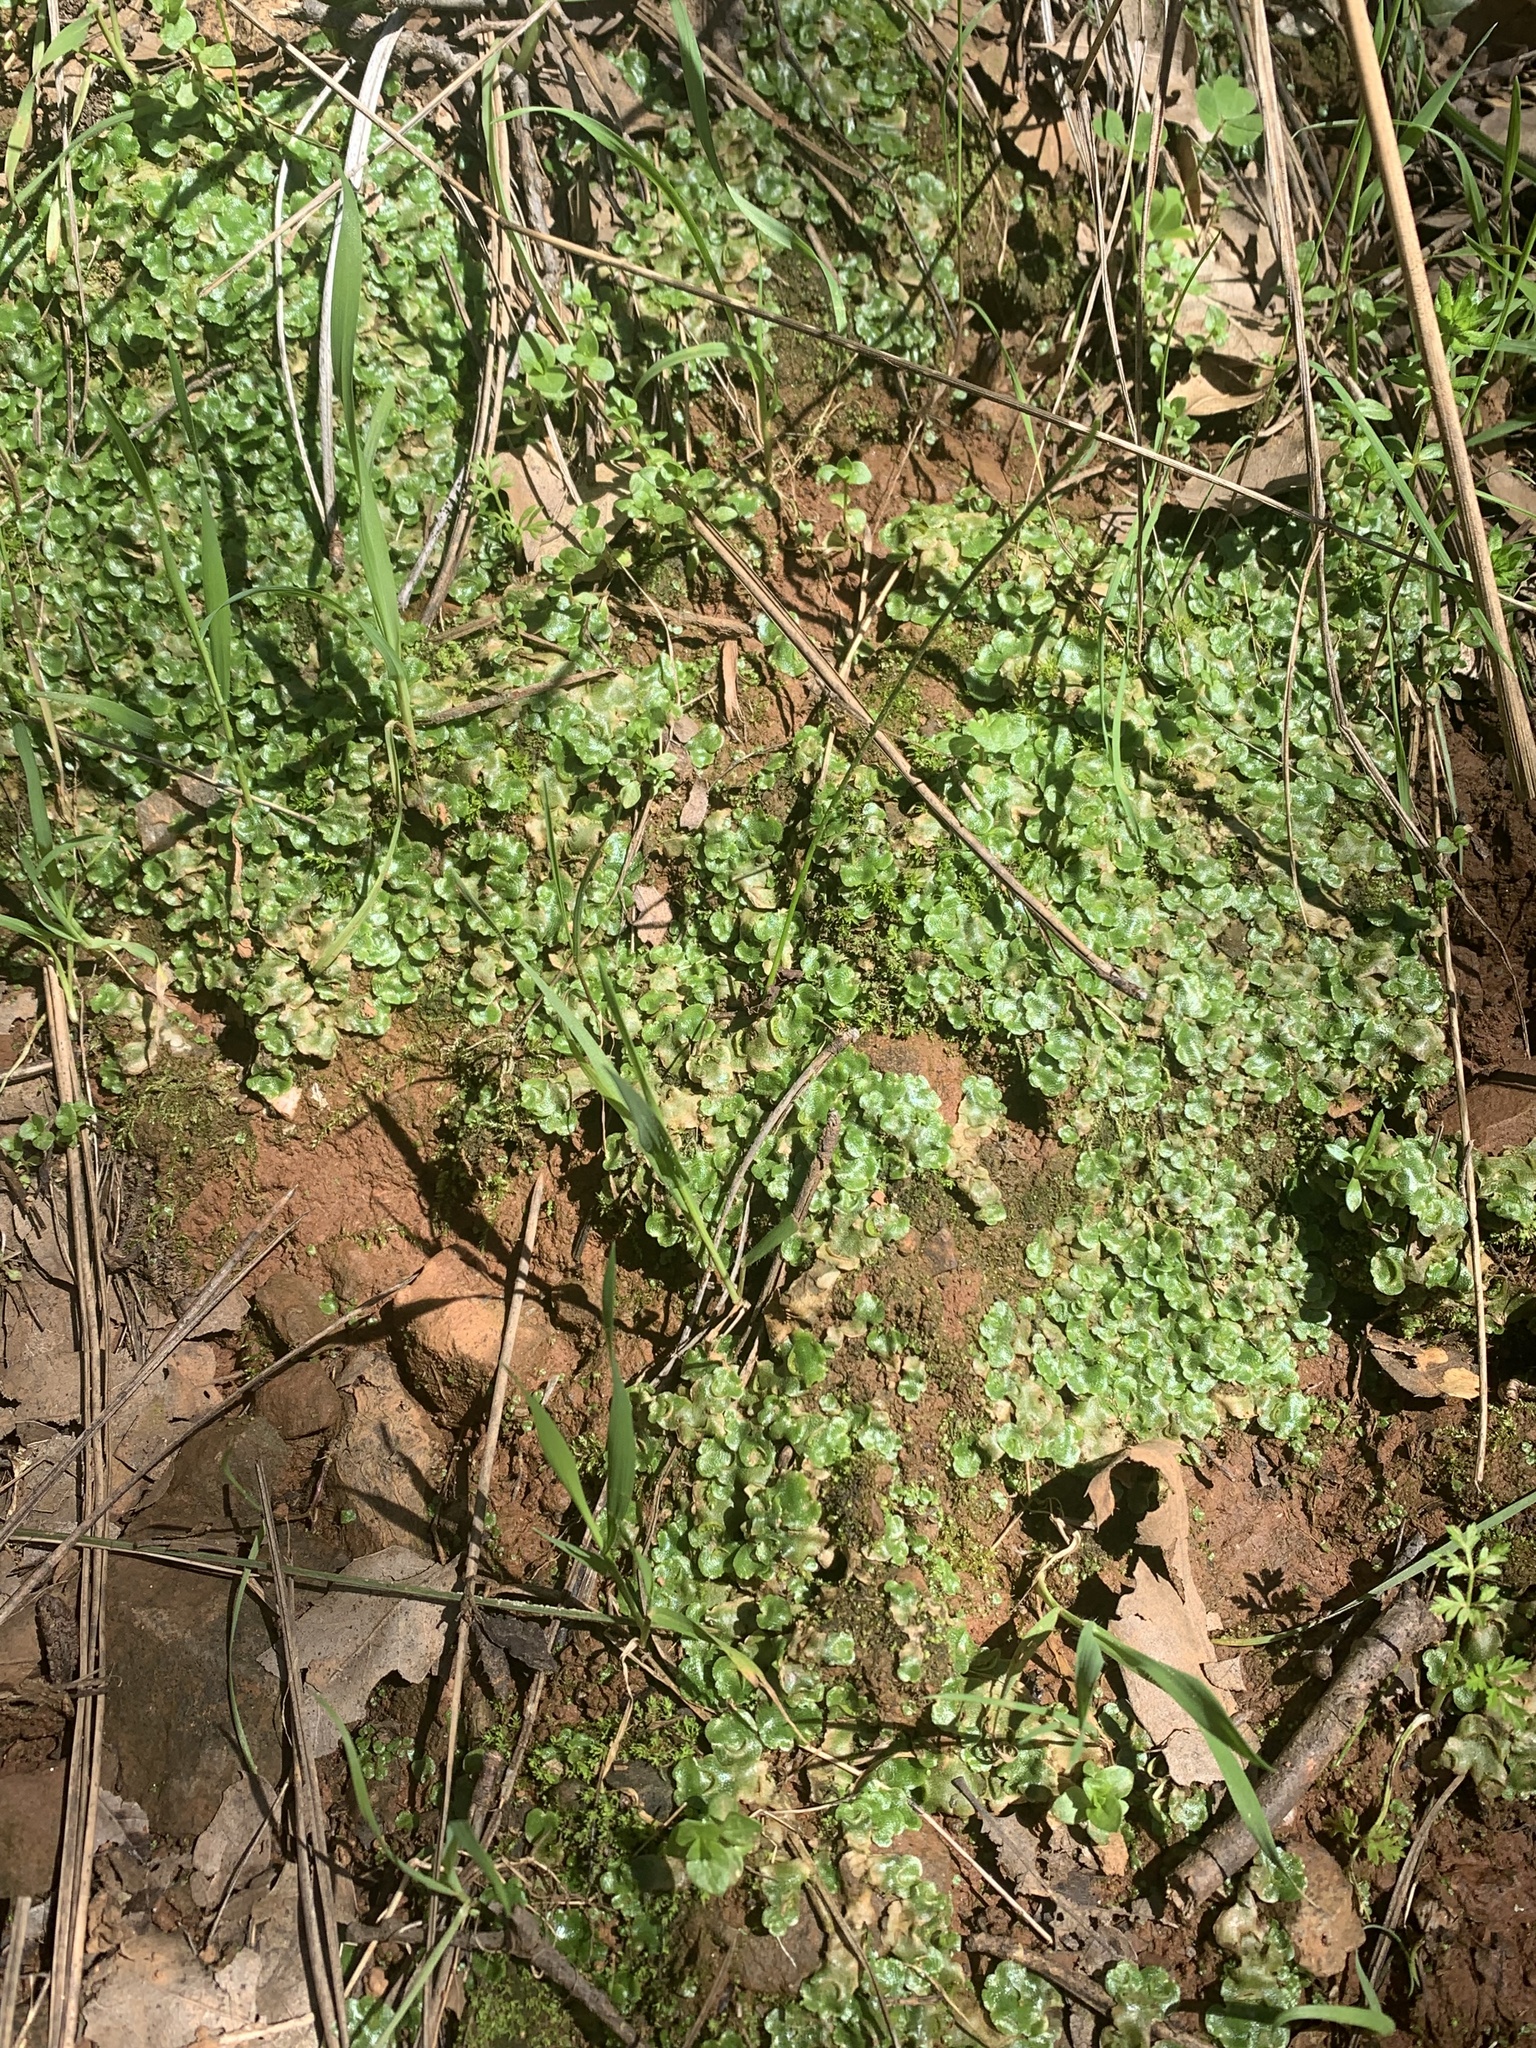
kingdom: Plantae
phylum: Marchantiophyta
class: Marchantiopsida
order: Lunulariales
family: Lunulariaceae
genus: Lunularia
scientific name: Lunularia cruciata
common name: Crescent-cup liverwort
